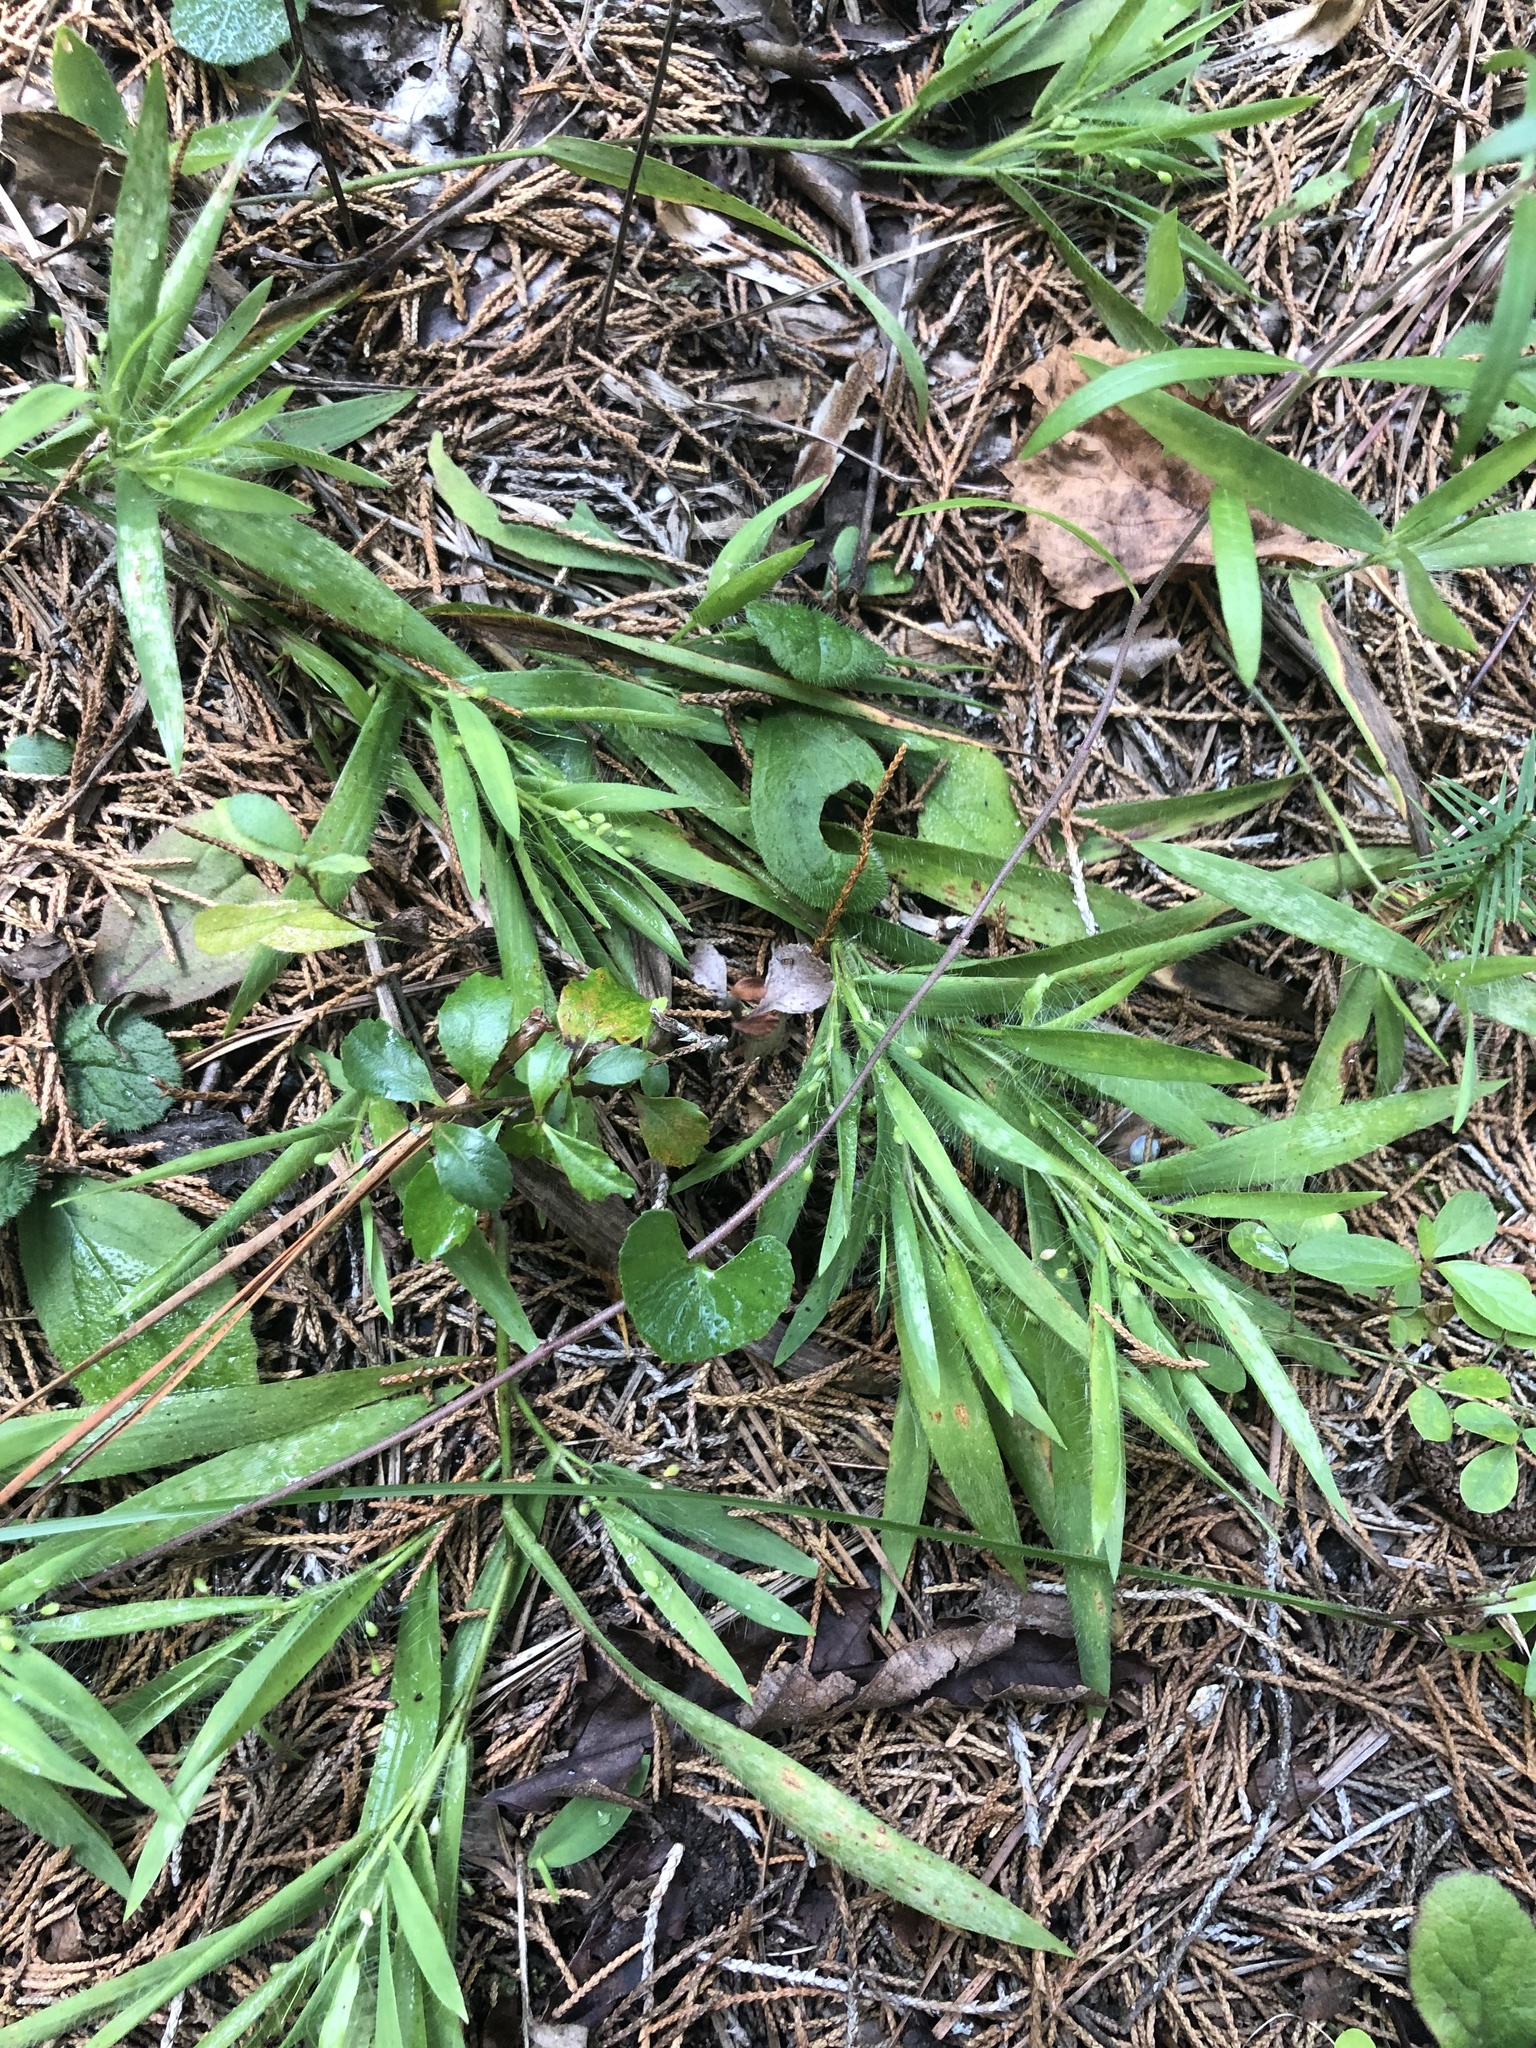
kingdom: Plantae
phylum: Tracheophyta
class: Liliopsida
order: Poales
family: Poaceae
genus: Dichanthelium
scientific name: Dichanthelium villosissimum
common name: White-haired panicgrass
